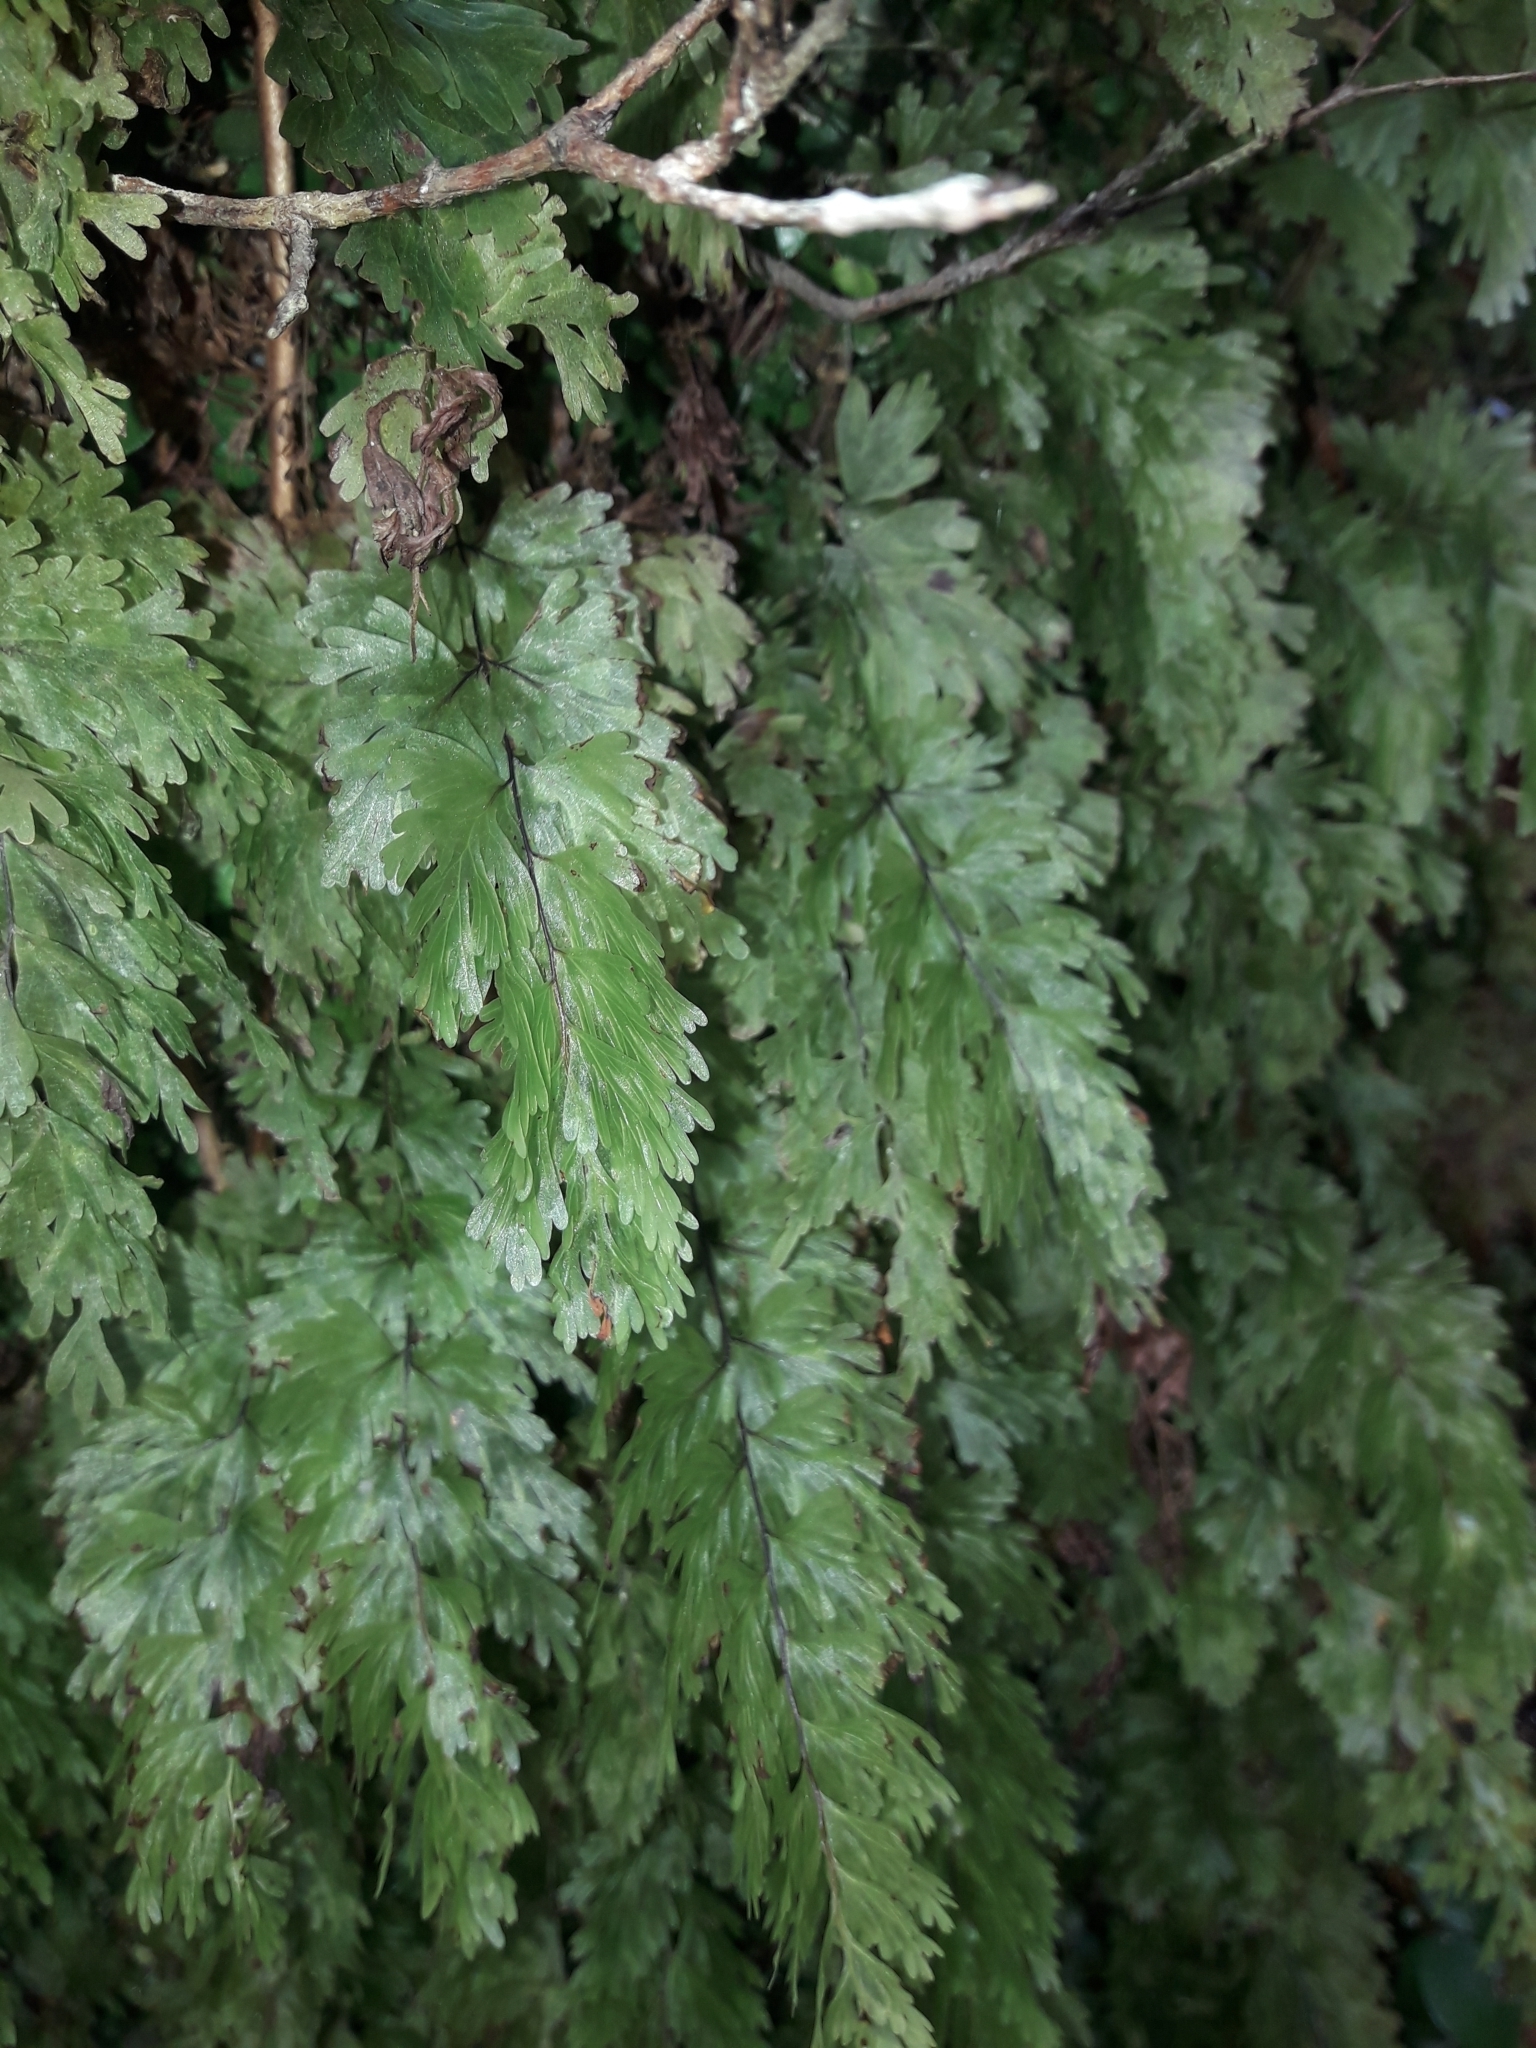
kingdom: Plantae
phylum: Tracheophyta
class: Polypodiopsida
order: Hymenophyllales
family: Hymenophyllaceae
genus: Hymenophyllum
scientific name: Hymenophyllum flabellatum
